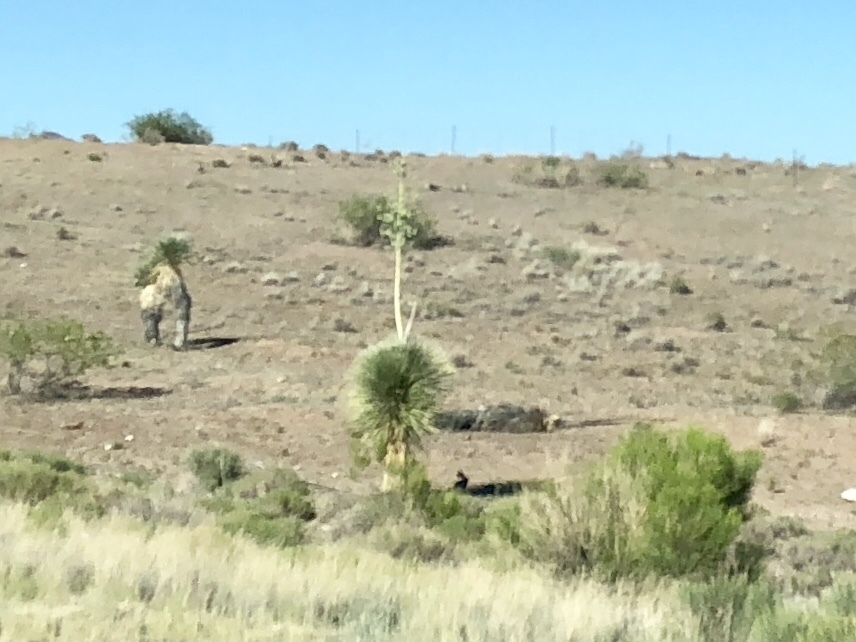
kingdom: Plantae
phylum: Tracheophyta
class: Liliopsida
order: Asparagales
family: Asparagaceae
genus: Yucca
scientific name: Yucca elata
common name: Palmella
